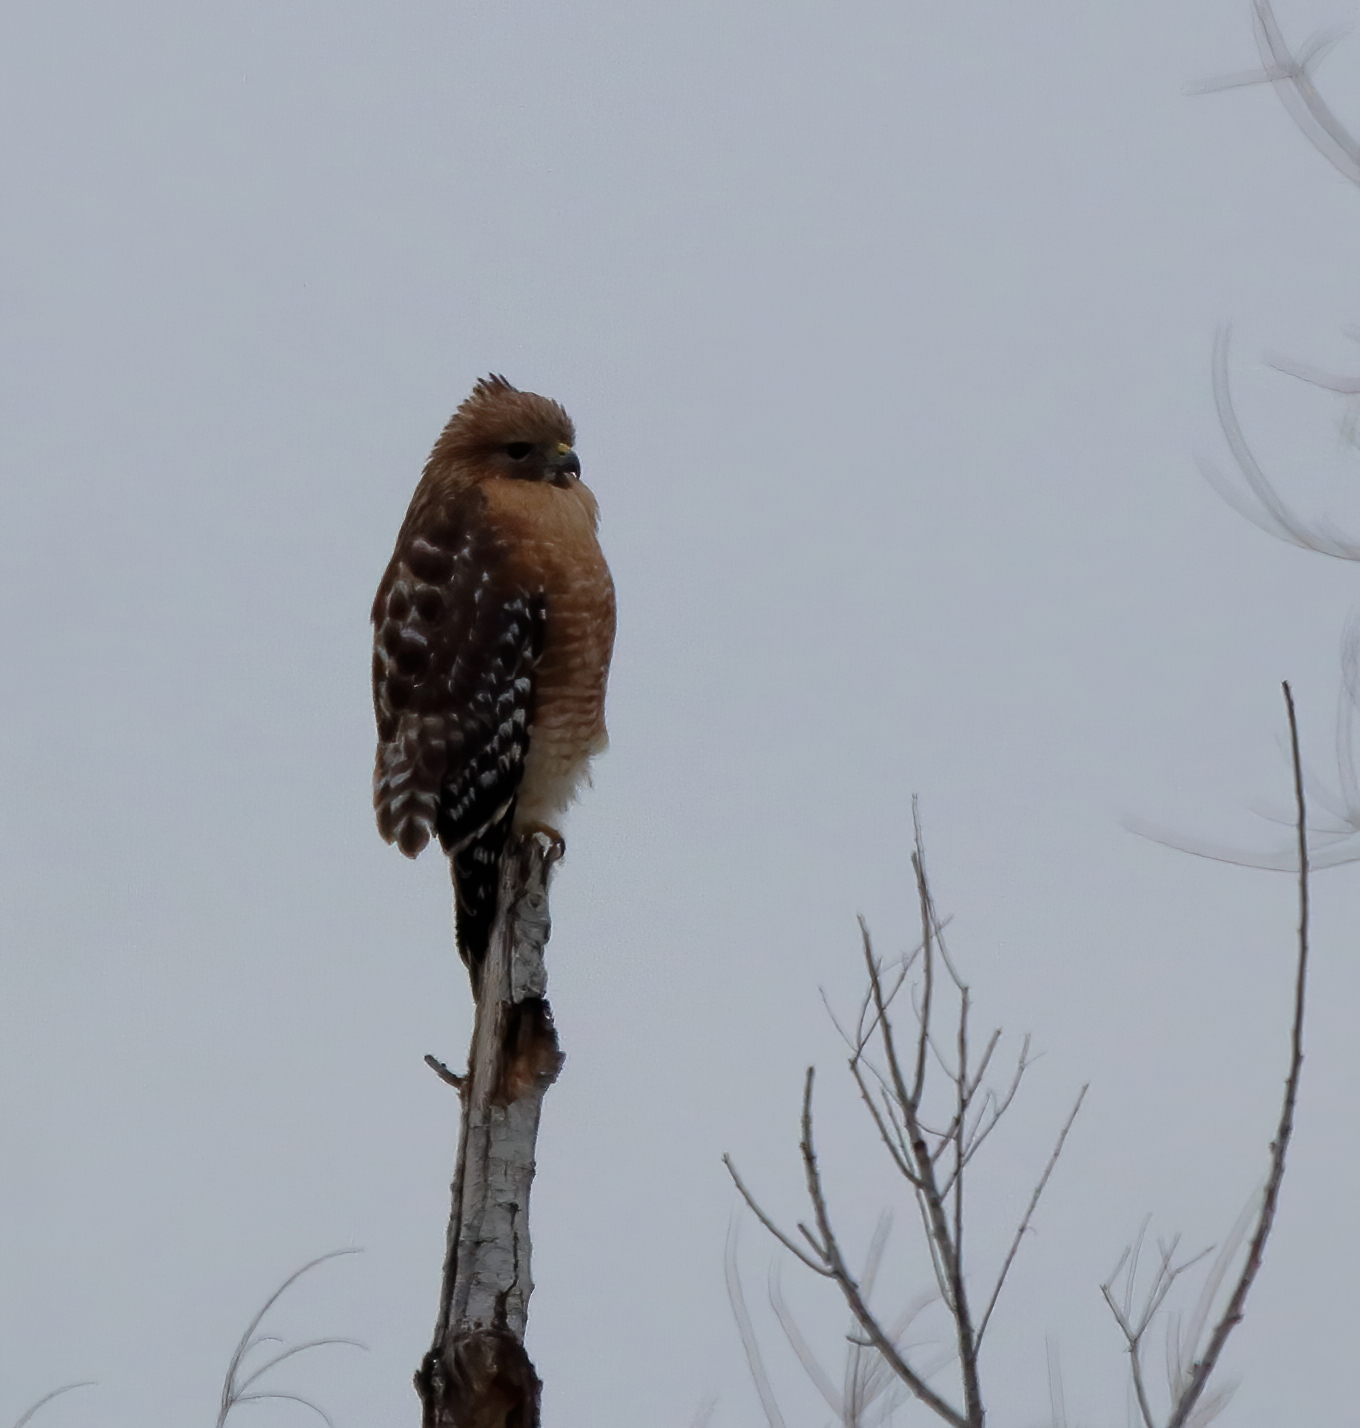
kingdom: Animalia
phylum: Chordata
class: Aves
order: Accipitriformes
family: Accipitridae
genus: Buteo
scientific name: Buteo lineatus
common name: Red-shouldered hawk
